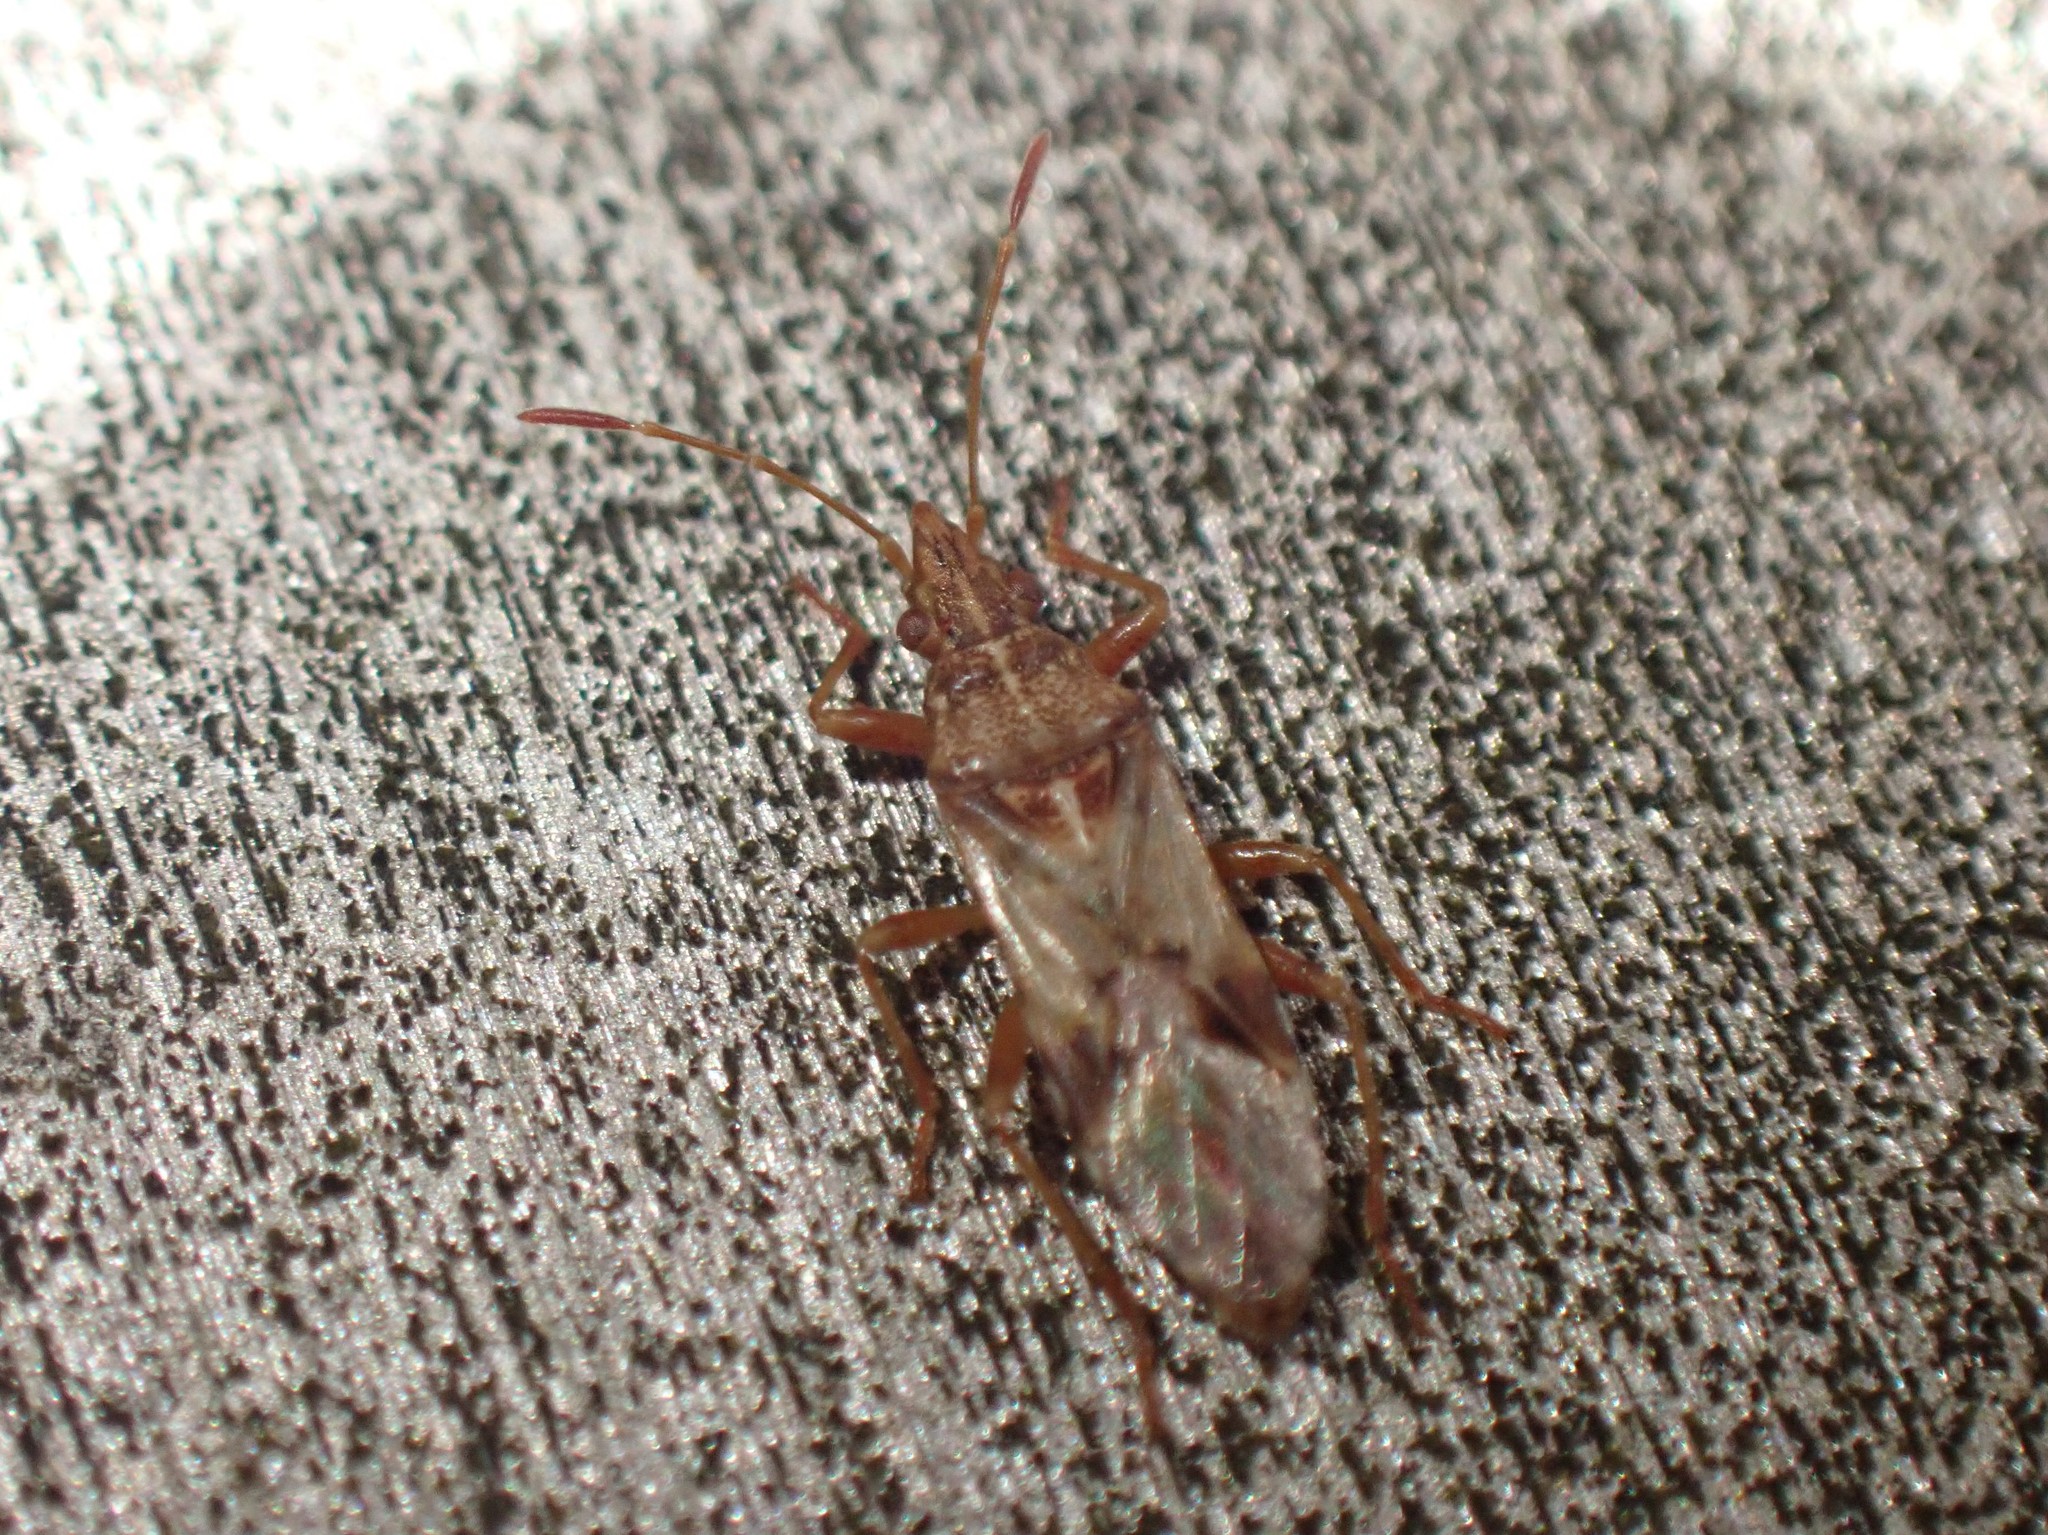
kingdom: Animalia
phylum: Arthropoda
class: Insecta
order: Hemiptera
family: Lygaeidae
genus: Belonochilus
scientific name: Belonochilus numenius
